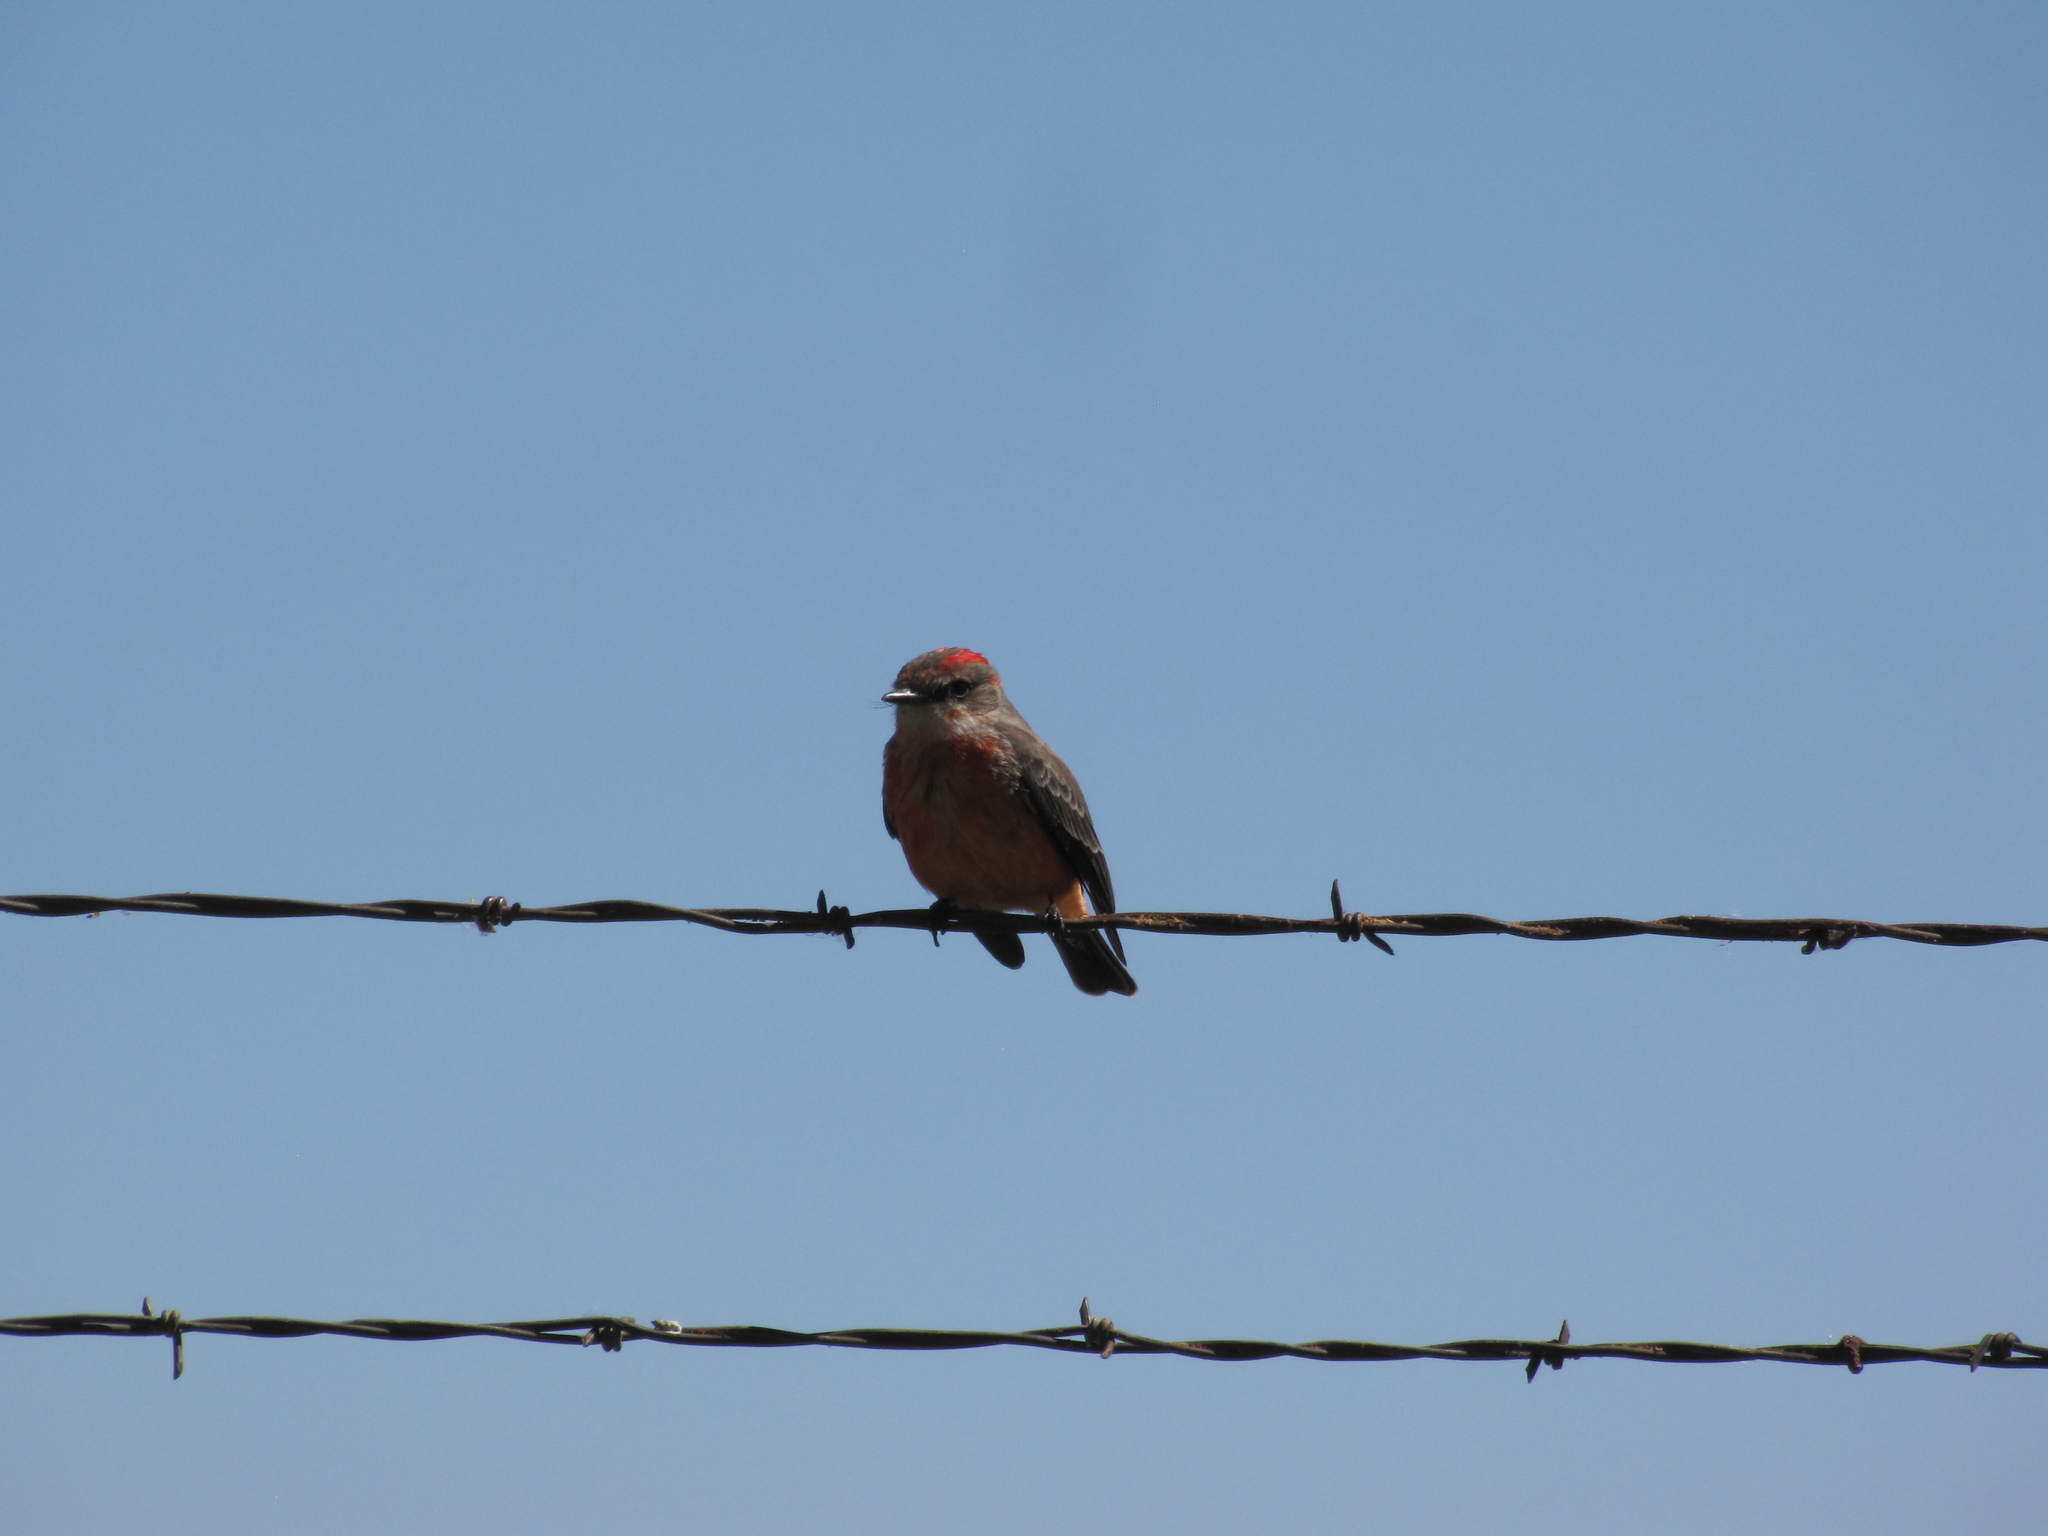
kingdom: Animalia
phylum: Chordata
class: Aves
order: Passeriformes
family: Tyrannidae
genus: Pyrocephalus
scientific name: Pyrocephalus rubinus
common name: Vermilion flycatcher
